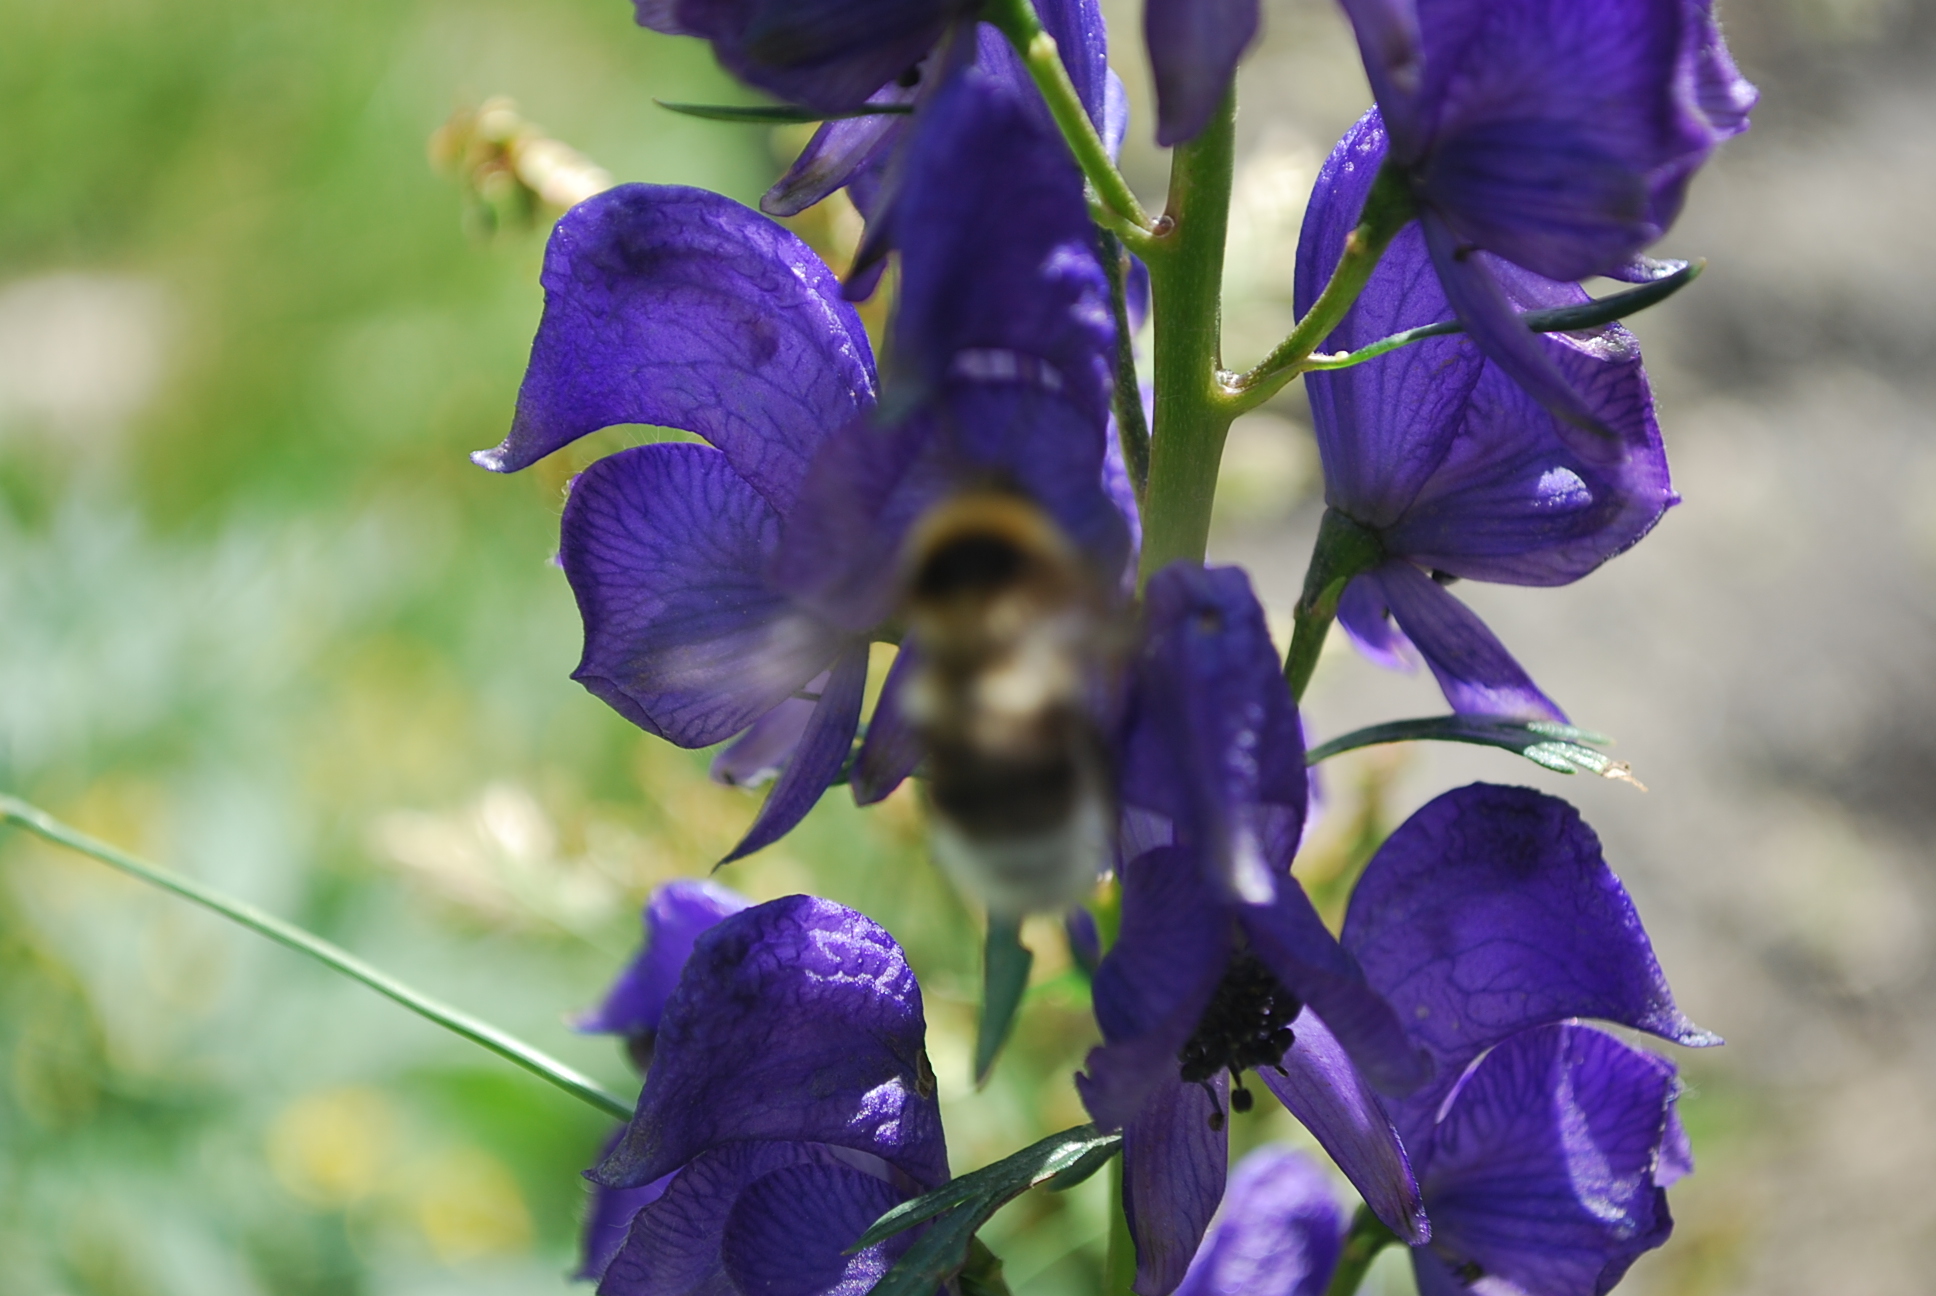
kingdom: Plantae
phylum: Tracheophyta
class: Magnoliopsida
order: Ranunculales
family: Ranunculaceae
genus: Aconitum
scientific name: Aconitum napellus
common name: Garden monkshood
